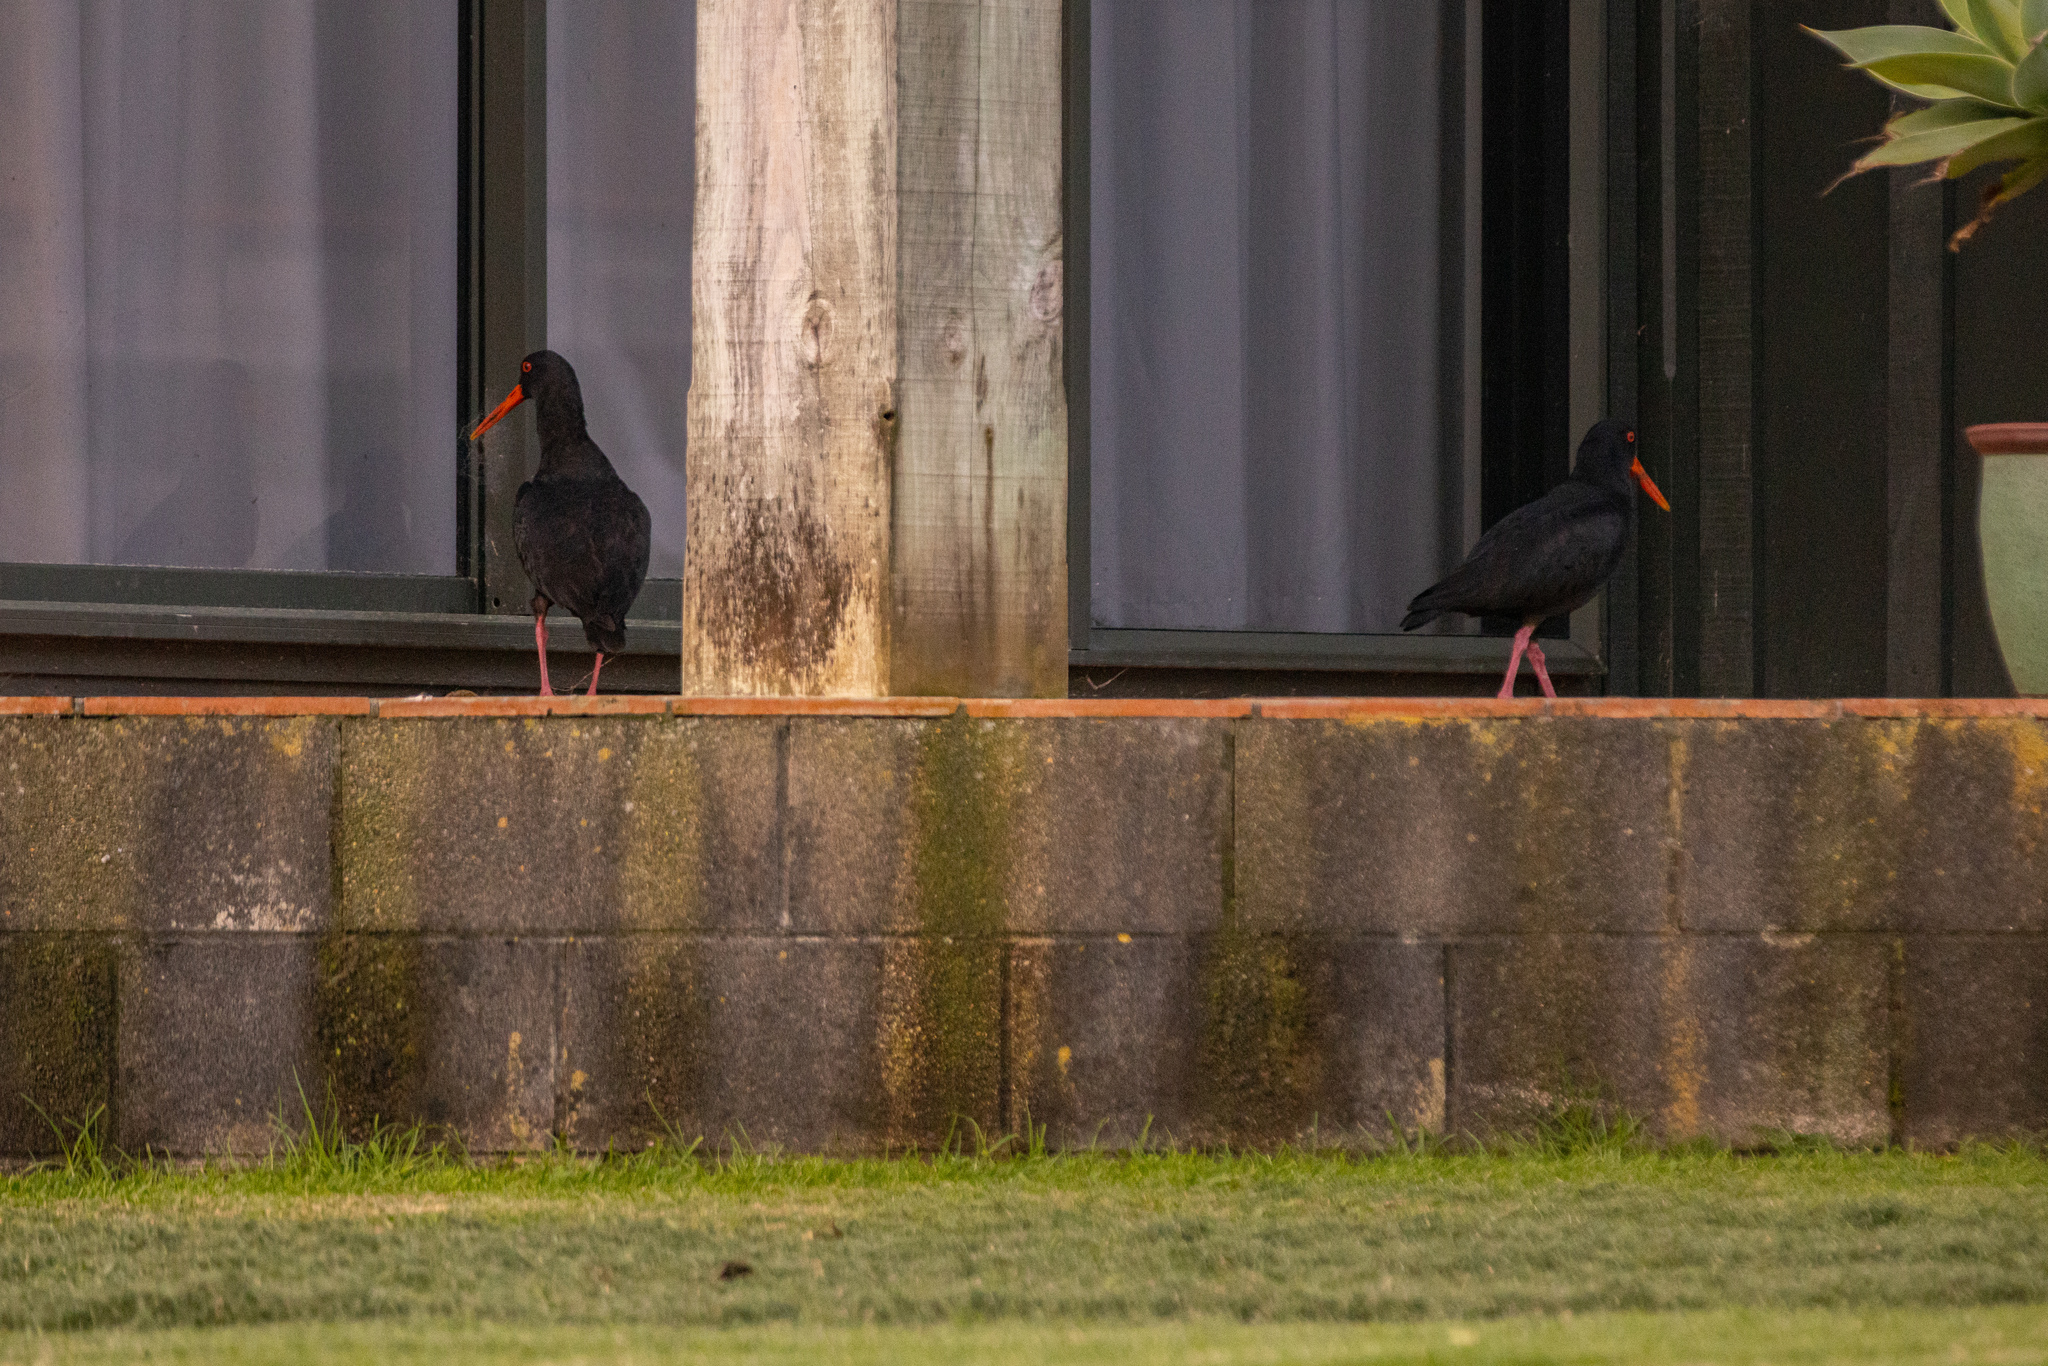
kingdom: Animalia
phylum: Chordata
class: Aves
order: Charadriiformes
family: Haematopodidae
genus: Haematopus
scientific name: Haematopus unicolor
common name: Variable oystercatcher
